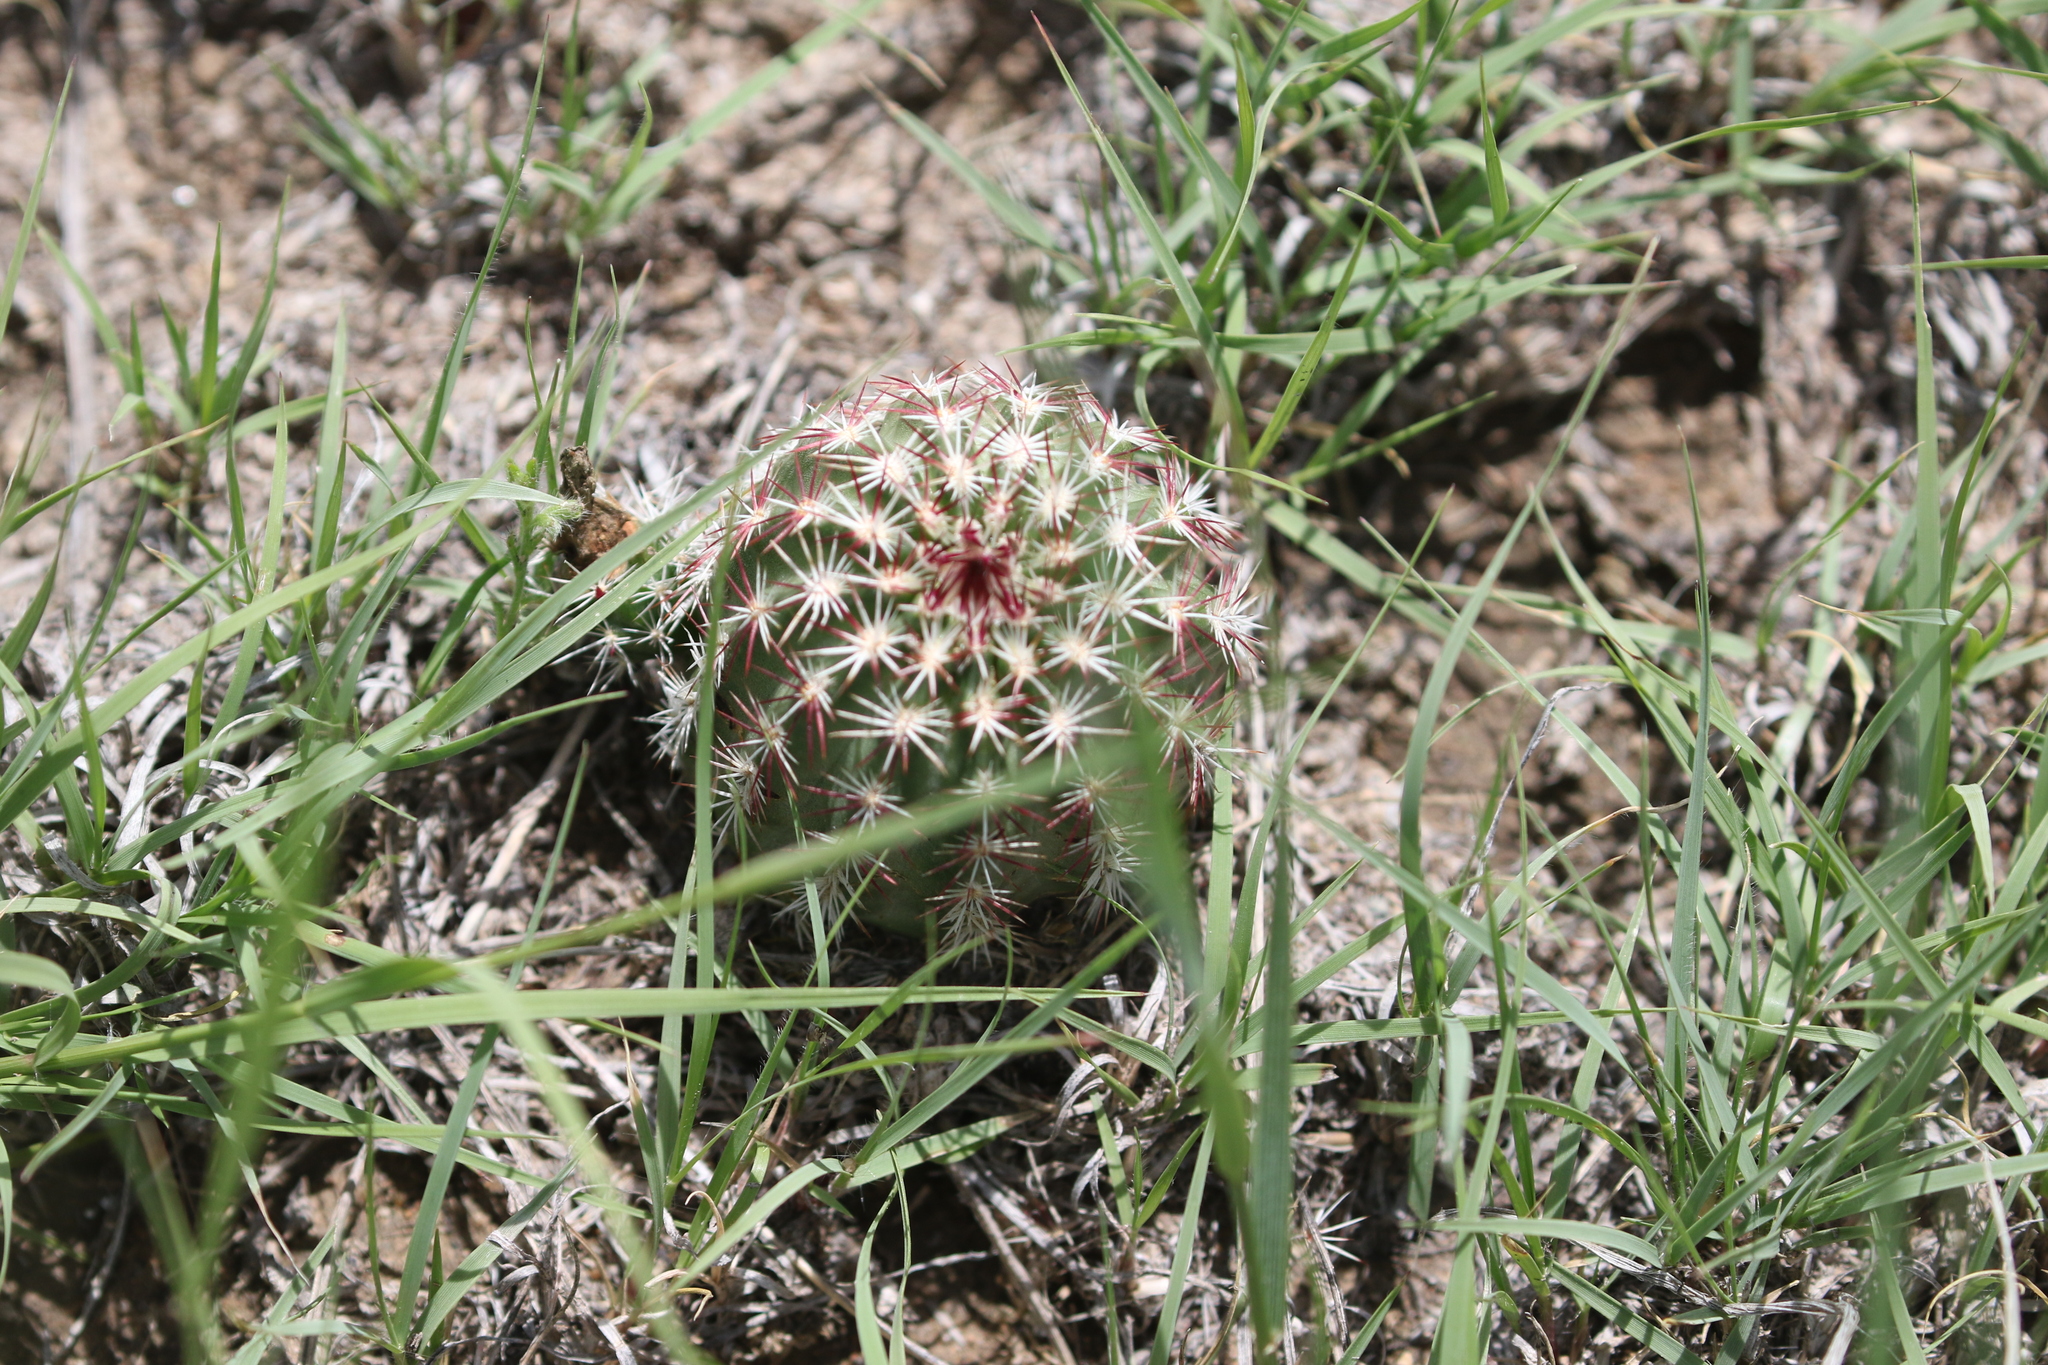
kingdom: Plantae
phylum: Tracheophyta
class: Magnoliopsida
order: Caryophyllales
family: Cactaceae
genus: Echinocereus
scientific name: Echinocereus viridiflorus
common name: Nylon hedgehog cactus
